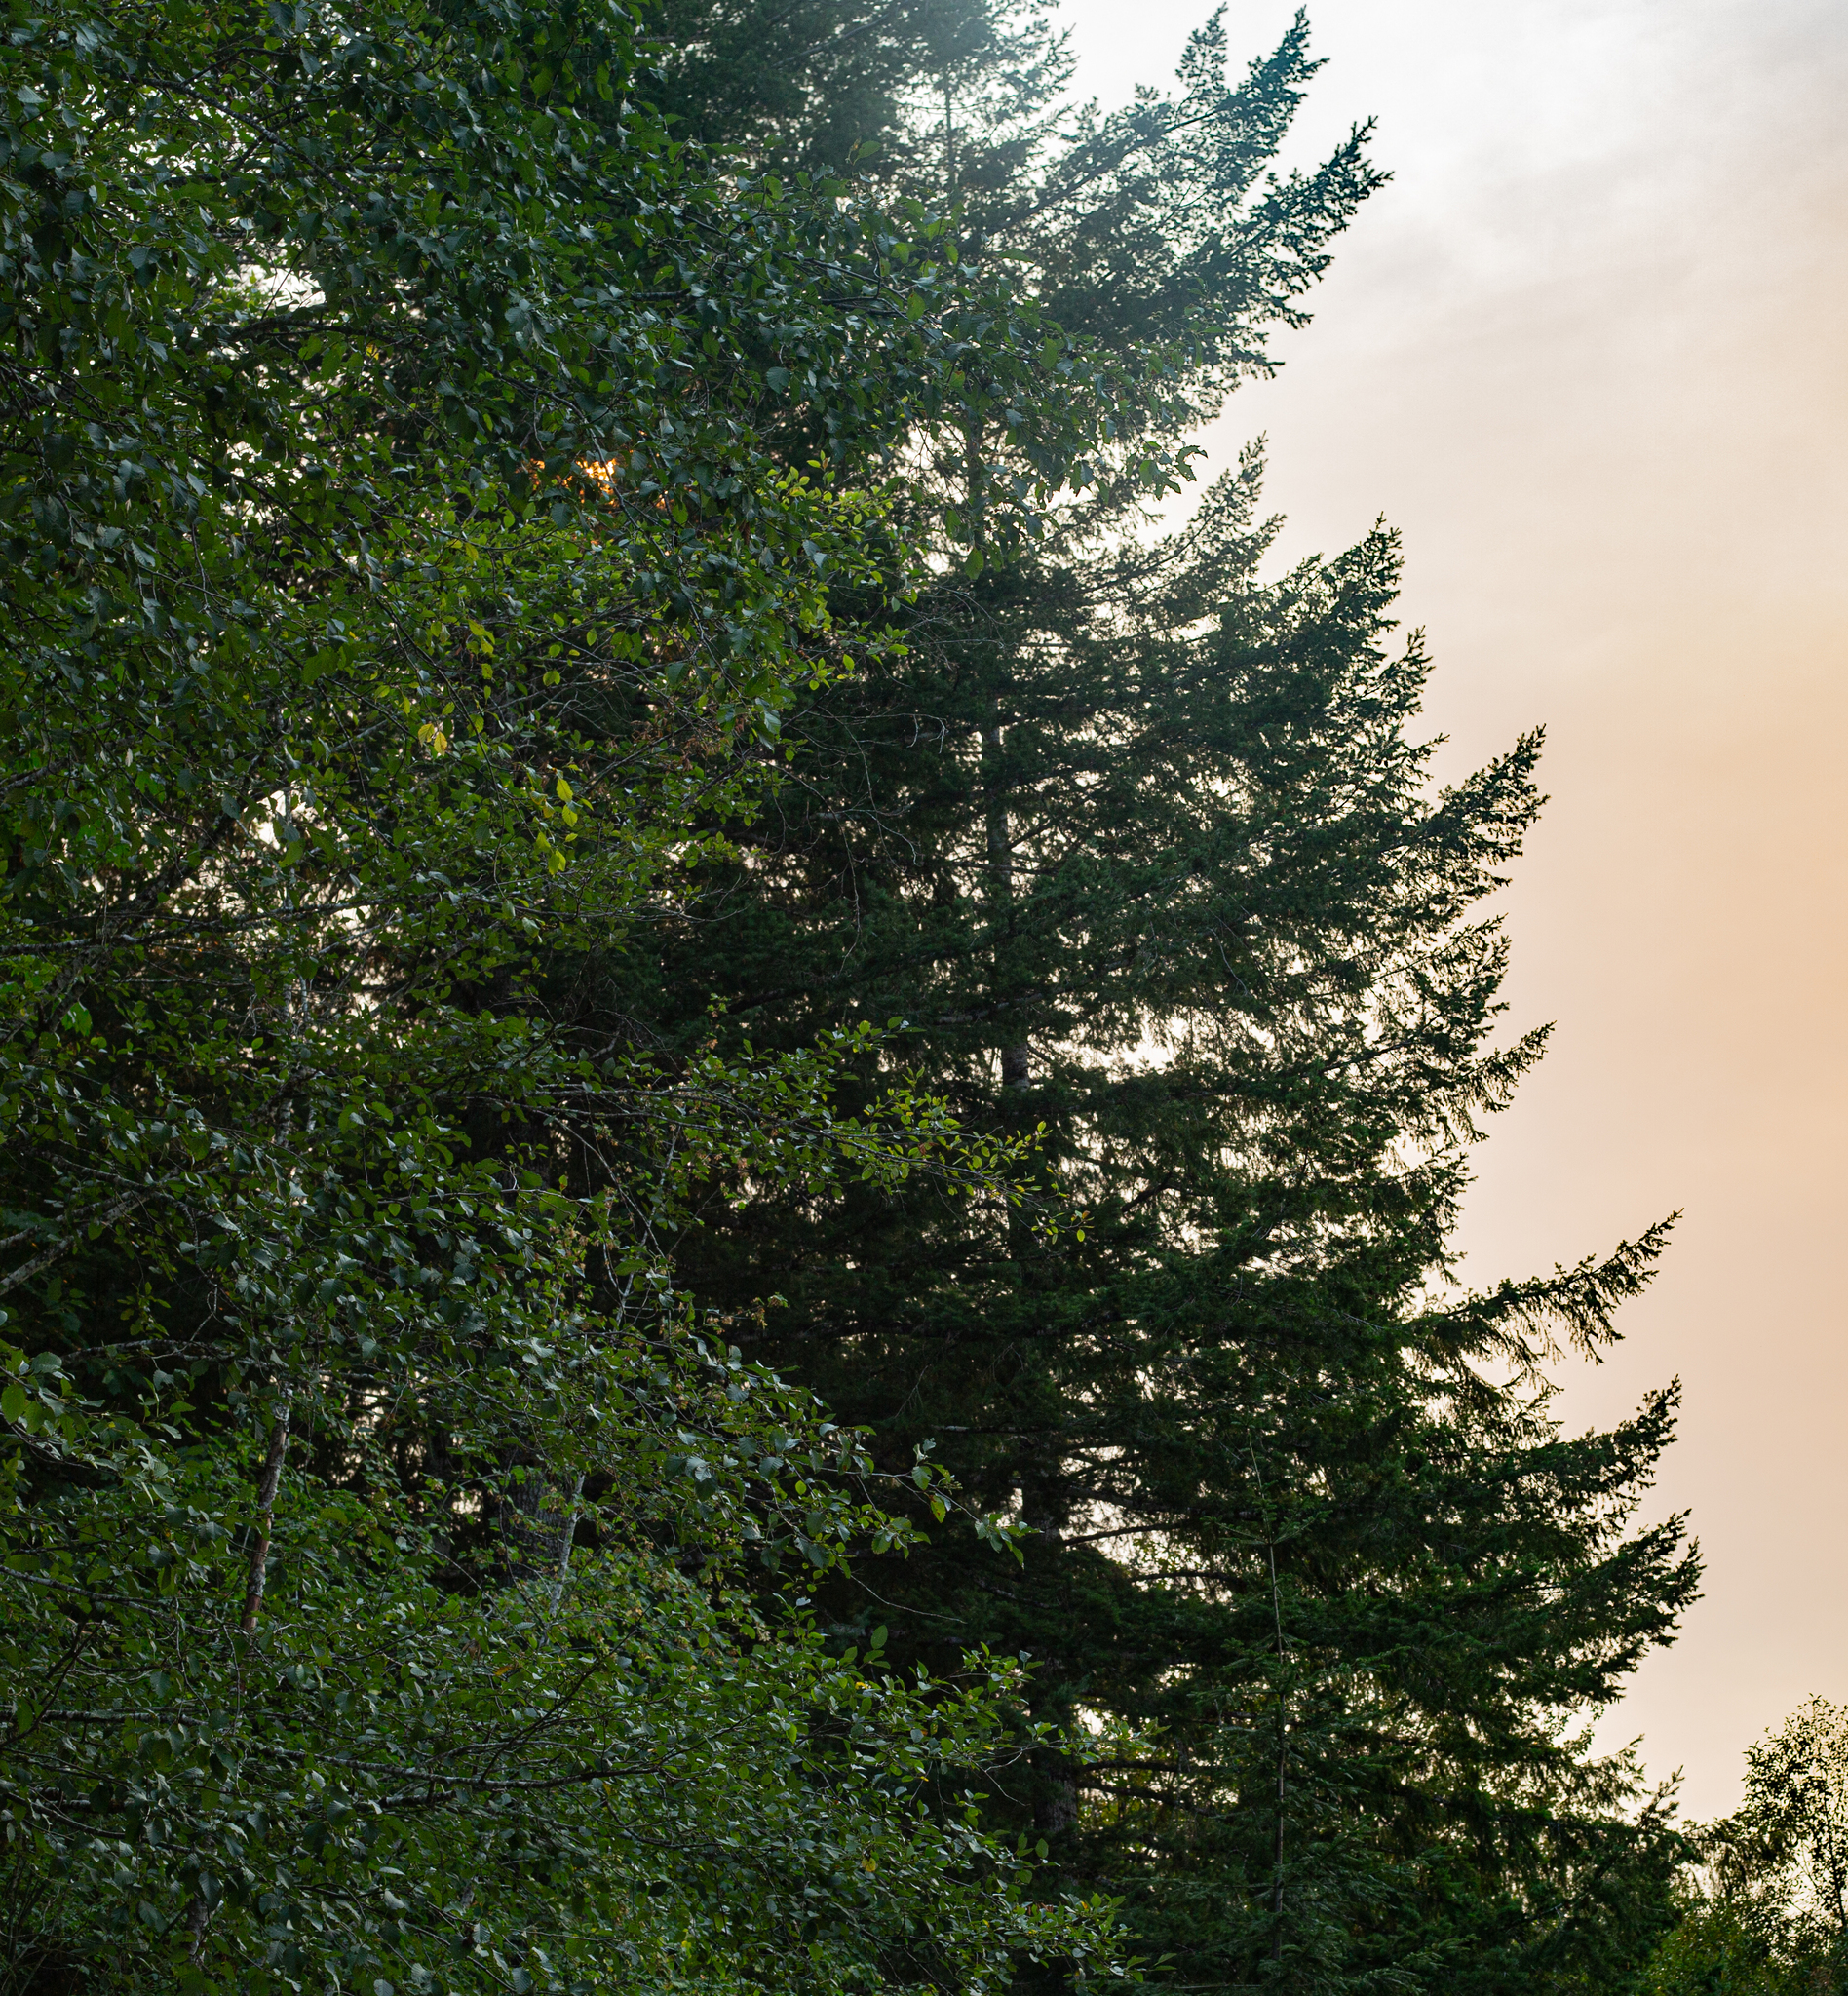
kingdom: Plantae
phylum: Tracheophyta
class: Pinopsida
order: Pinales
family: Pinaceae
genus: Pseudotsuga
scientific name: Pseudotsuga menziesii
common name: Douglas fir
